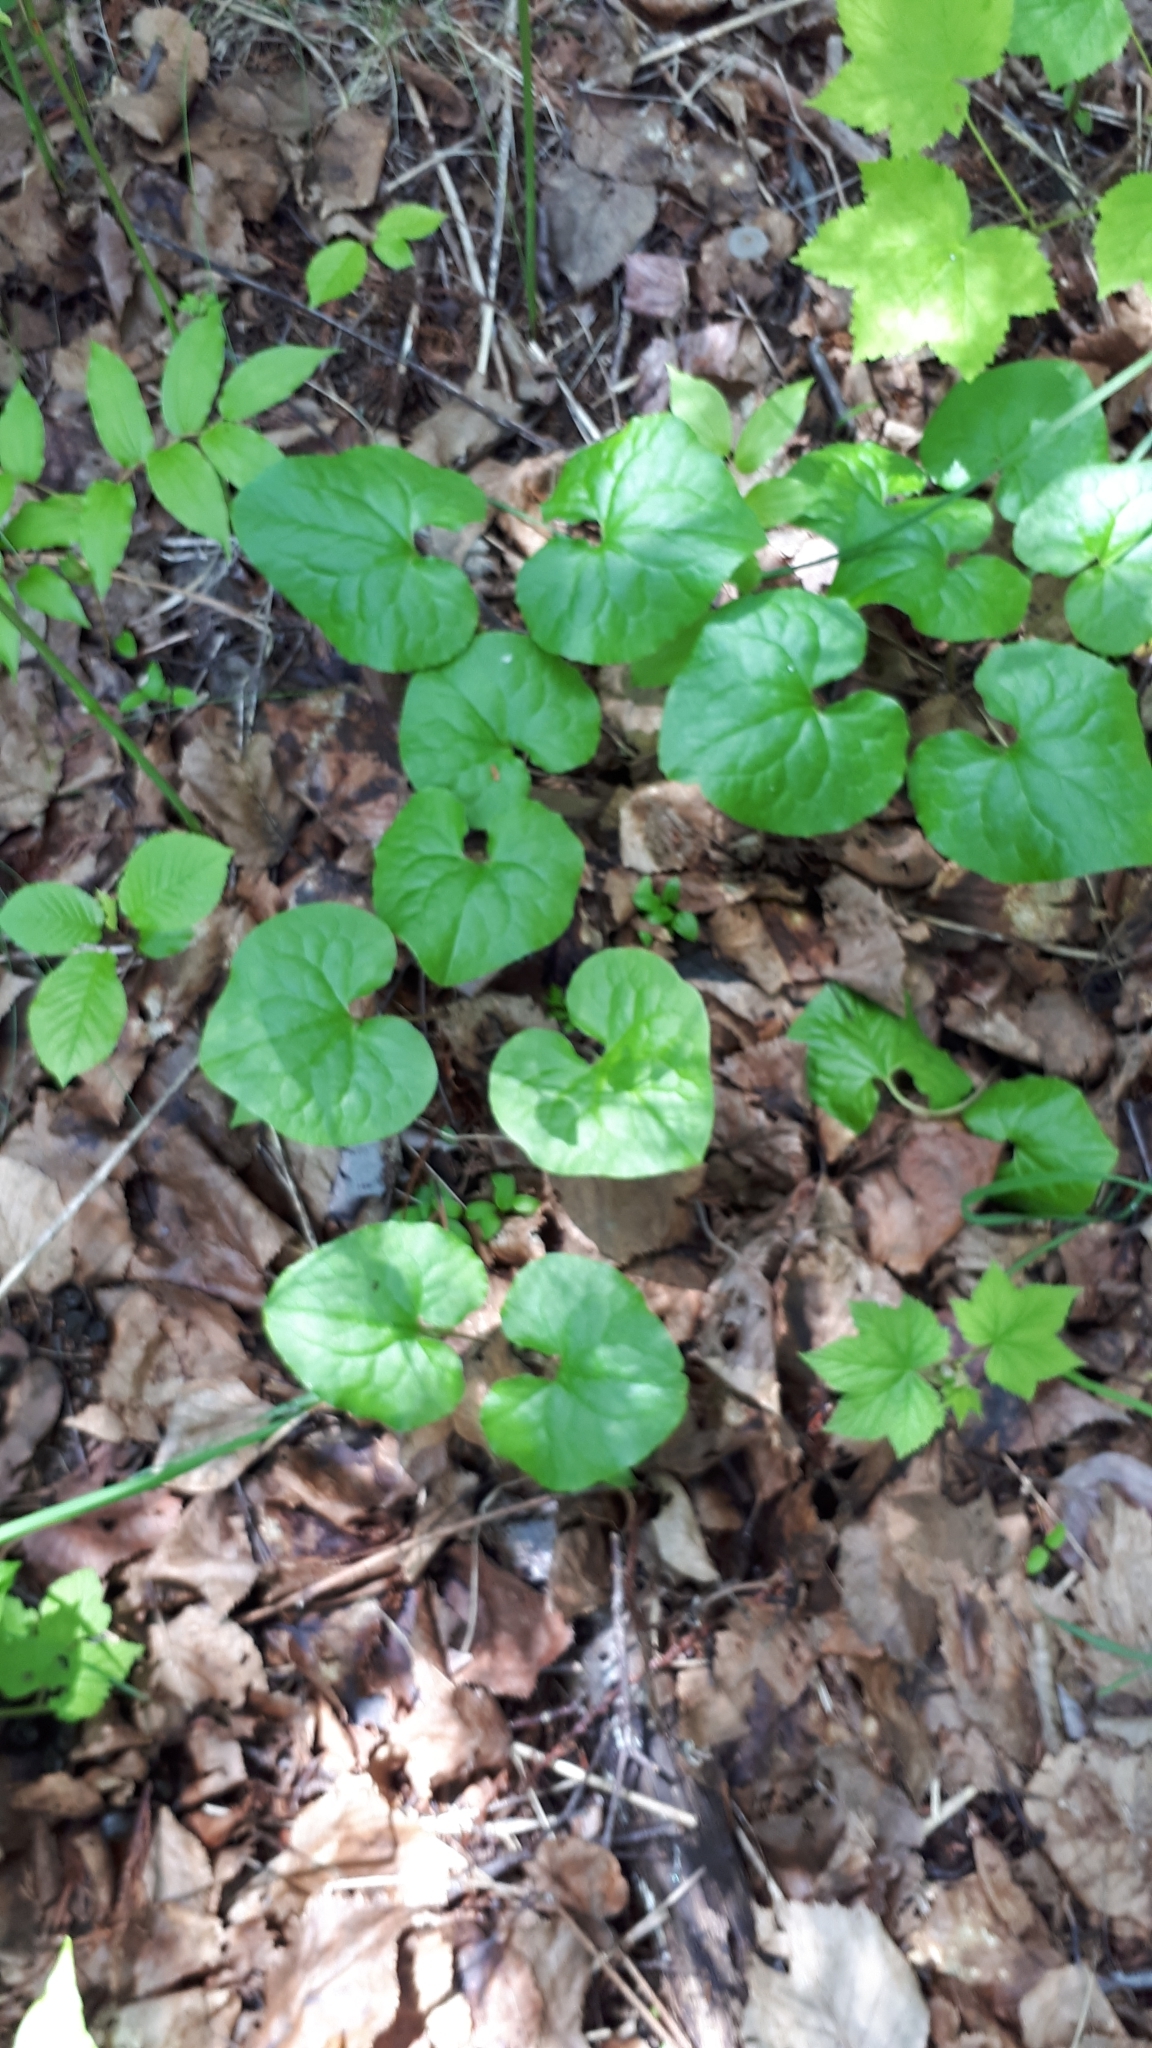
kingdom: Plantae
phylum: Tracheophyta
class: Magnoliopsida
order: Piperales
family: Aristolochiaceae
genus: Asarum
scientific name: Asarum caudatum
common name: Wild ginger
